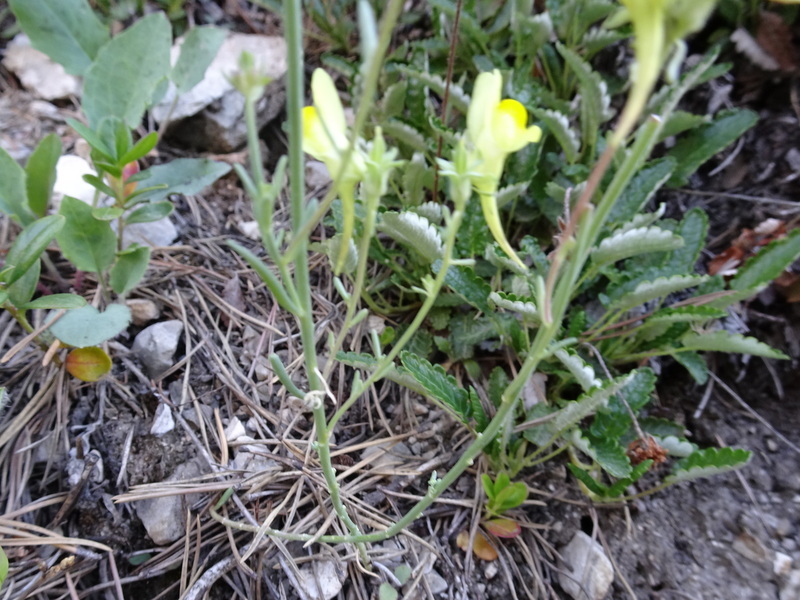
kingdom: Plantae
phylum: Tracheophyta
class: Magnoliopsida
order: Lamiales
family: Plantaginaceae
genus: Linaria
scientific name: Linaria supina
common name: Prostrate toadflax
